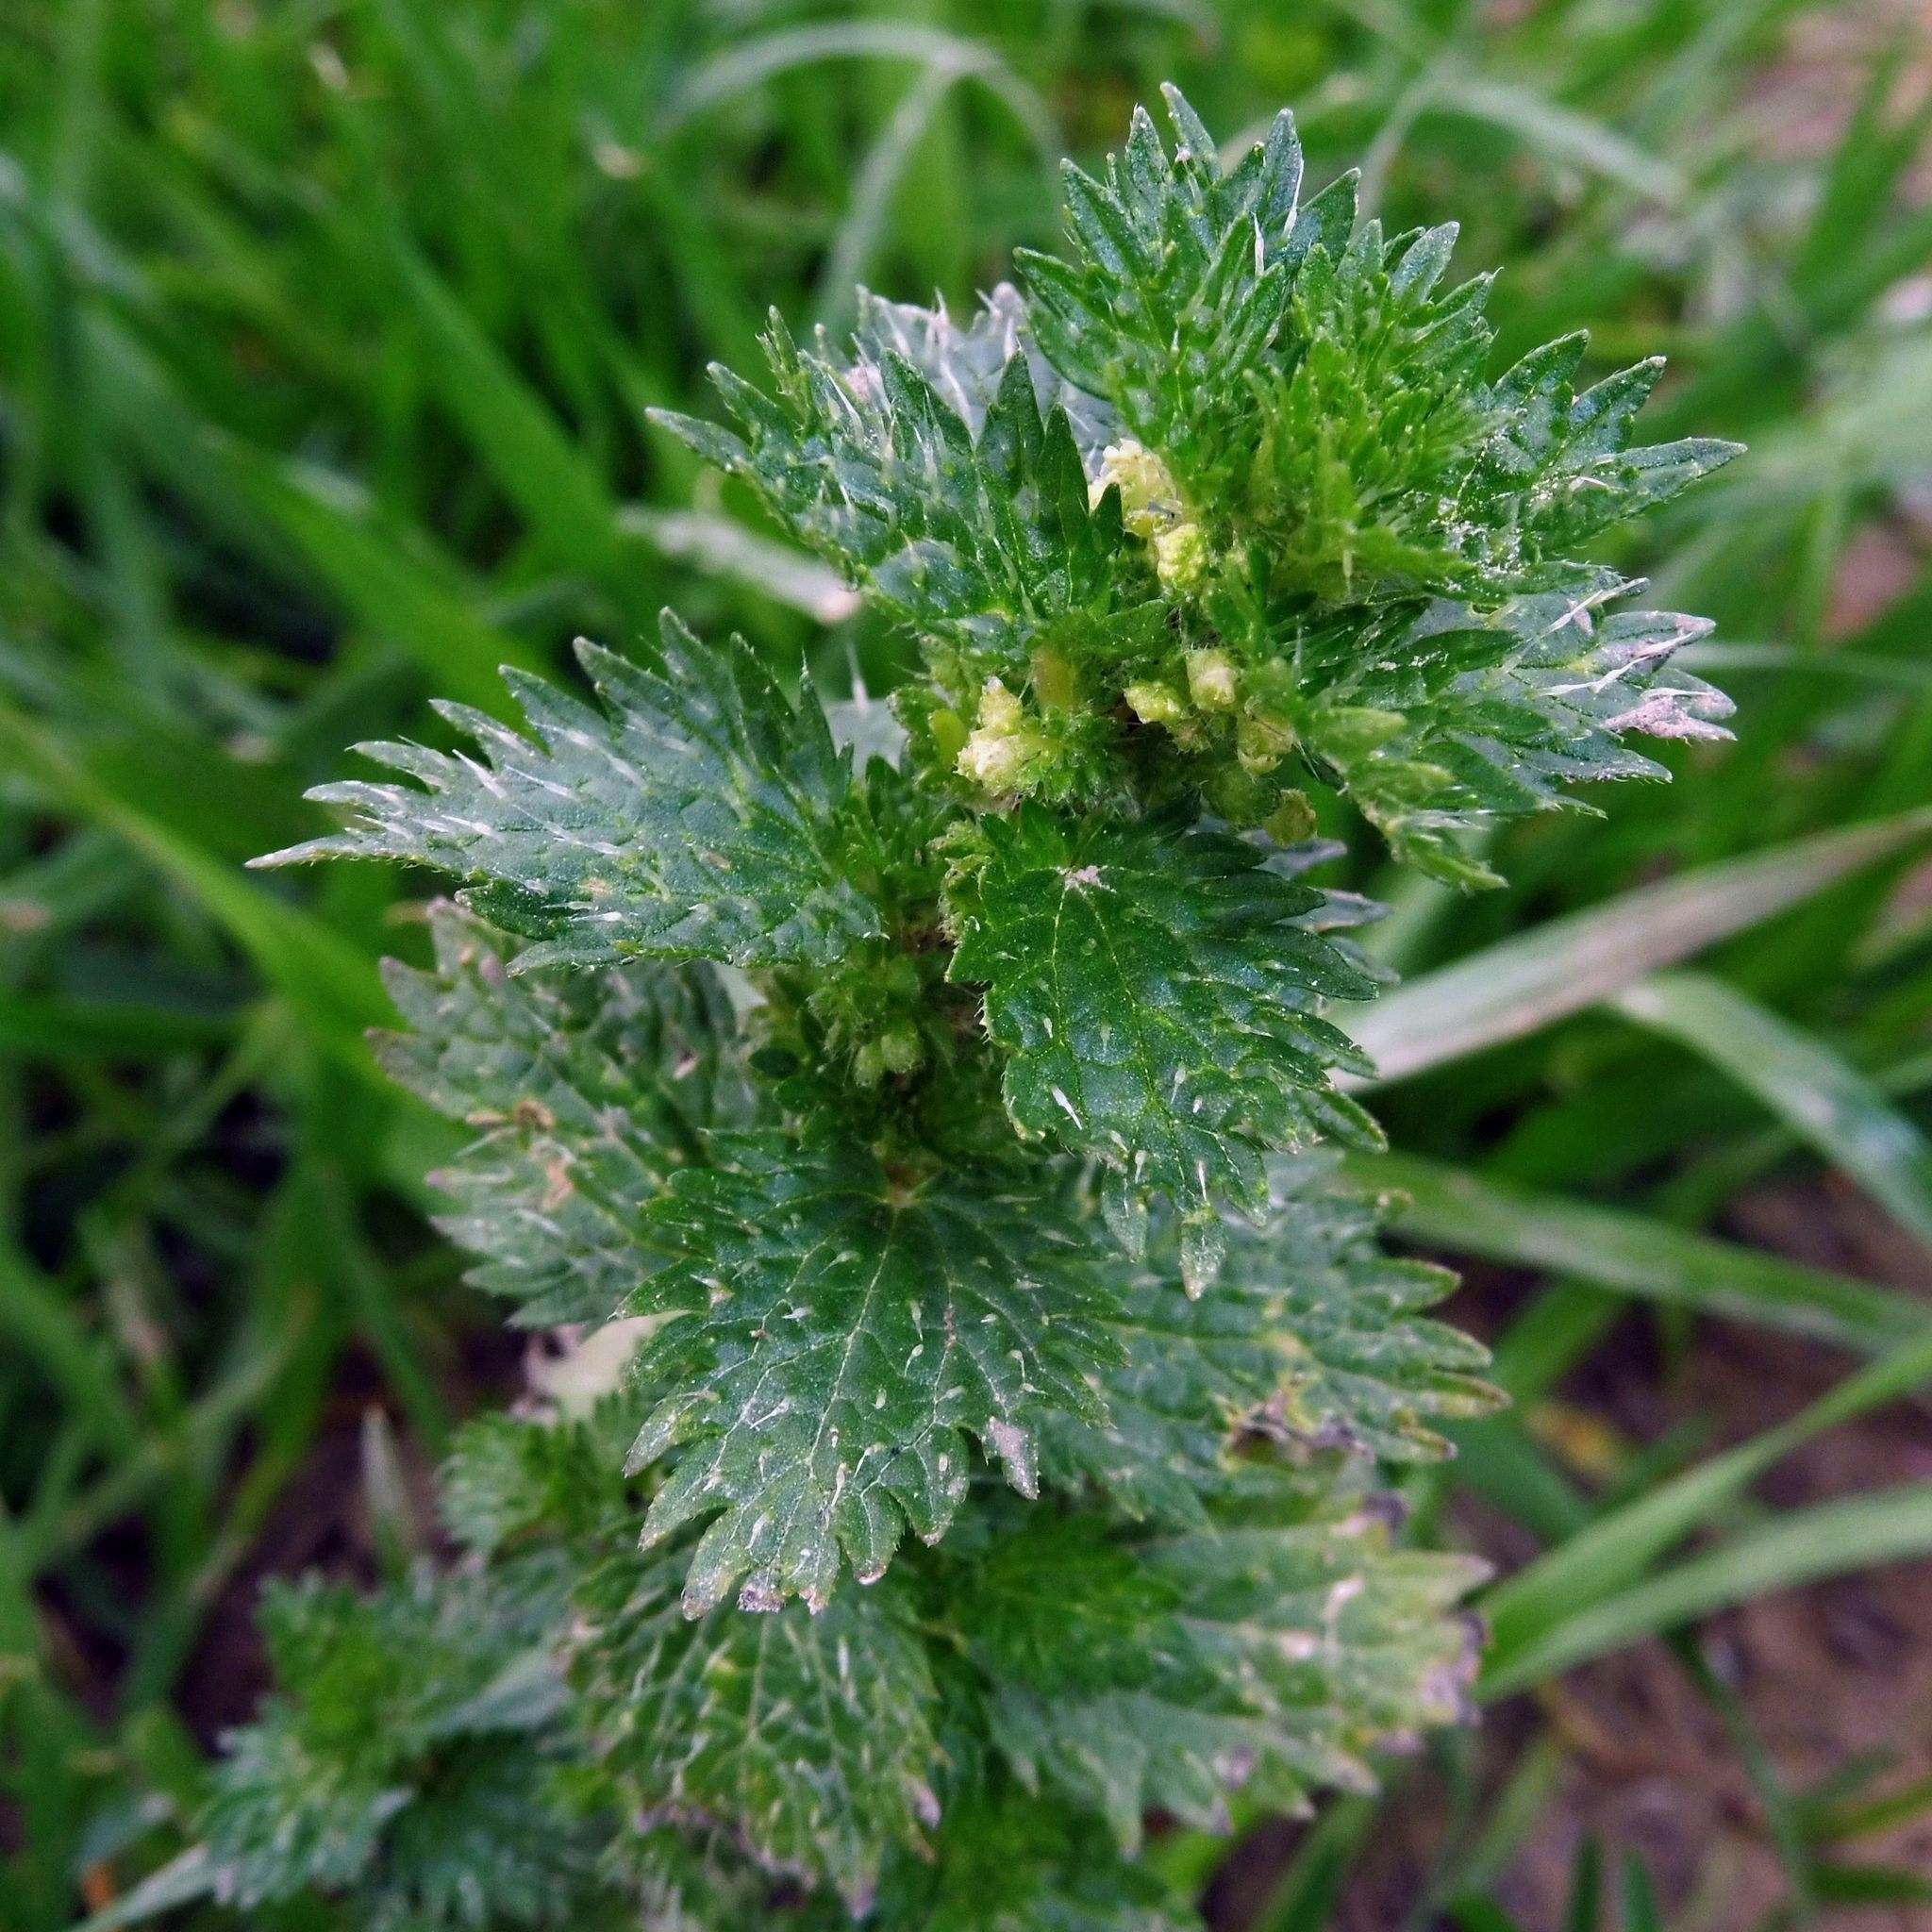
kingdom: Plantae
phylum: Tracheophyta
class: Magnoliopsida
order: Rosales
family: Urticaceae
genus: Urtica
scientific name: Urtica urens
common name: Dwarf nettle
